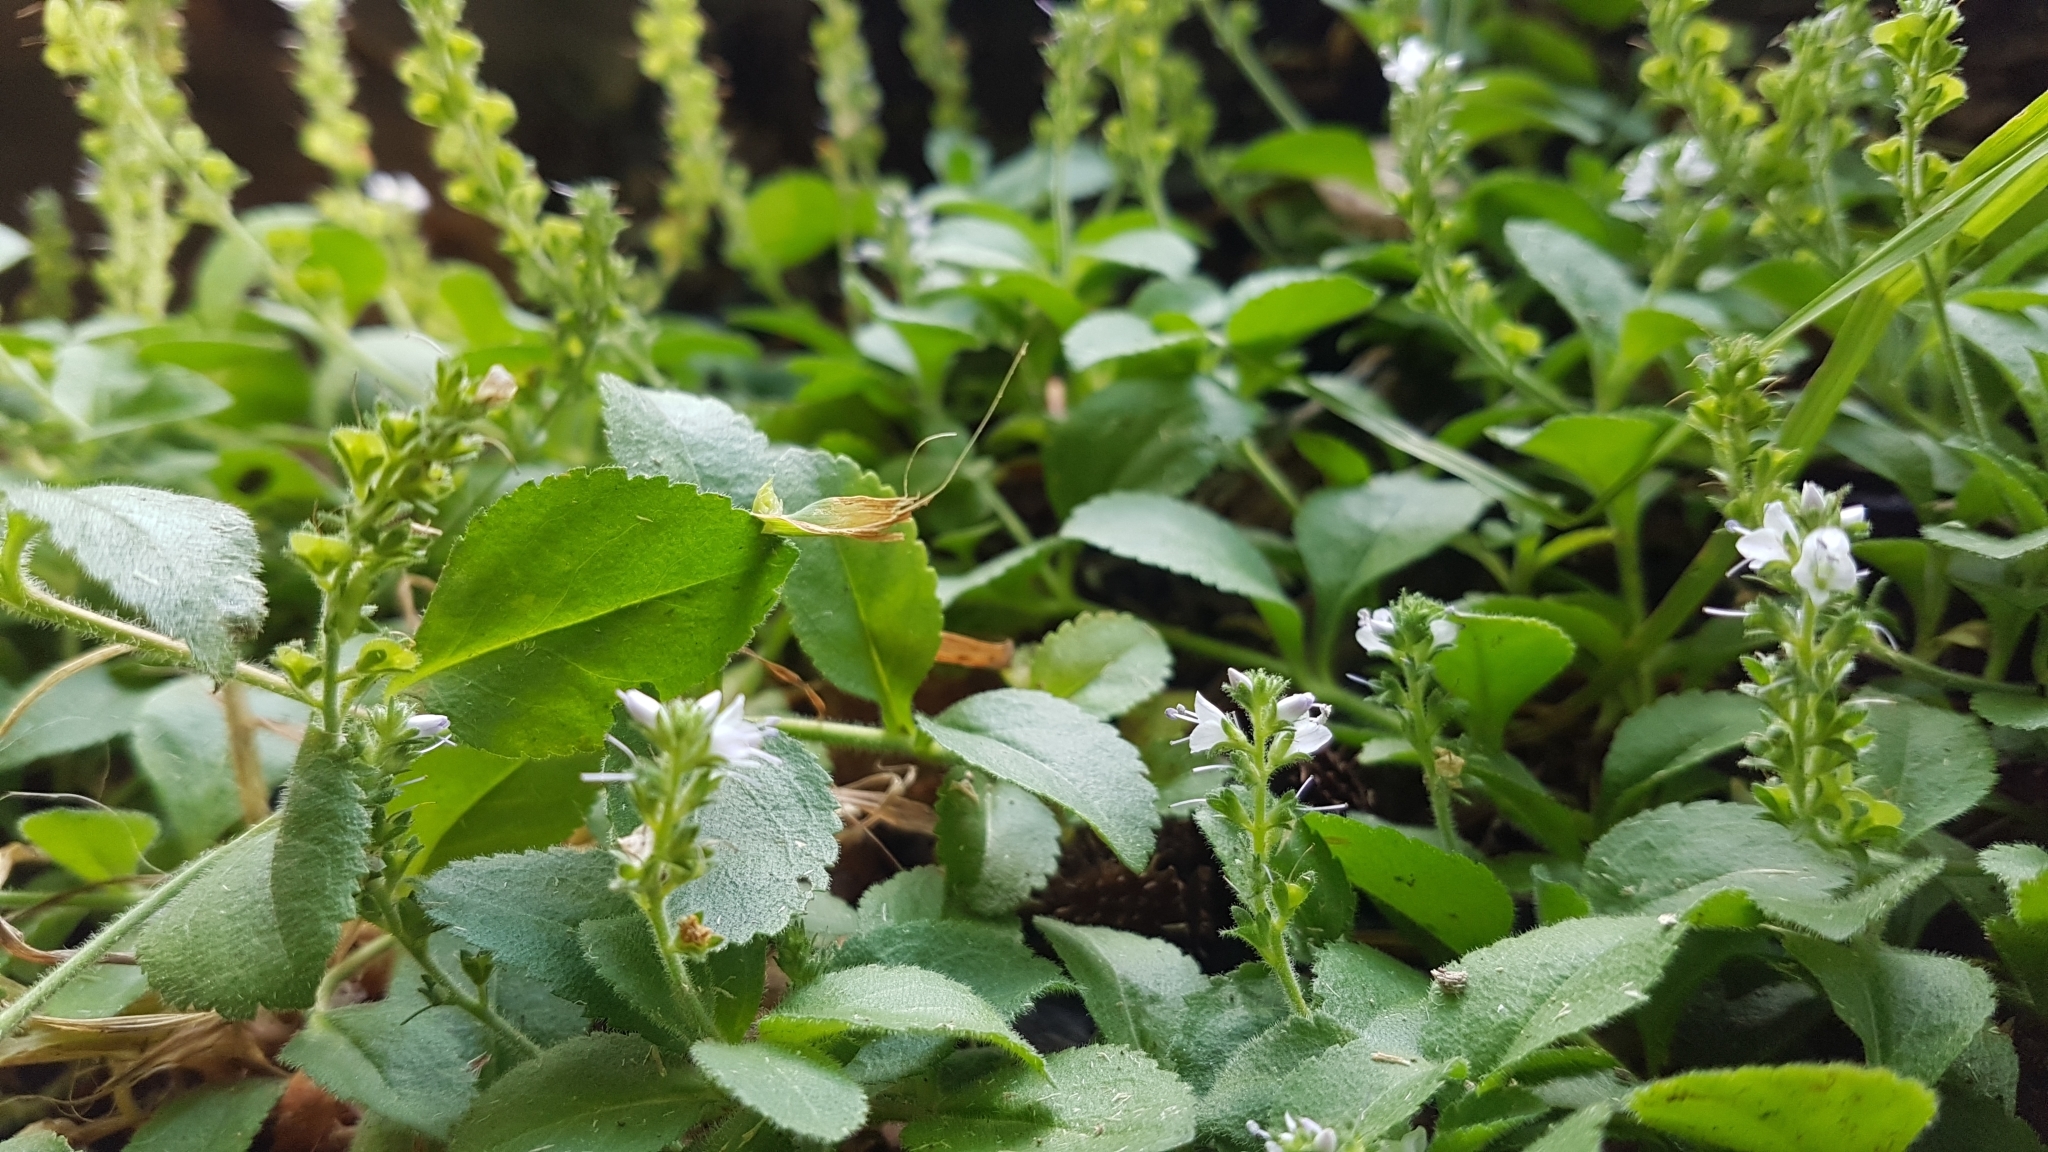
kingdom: Plantae
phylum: Tracheophyta
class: Magnoliopsida
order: Lamiales
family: Plantaginaceae
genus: Veronica
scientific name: Veronica officinalis
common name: Common speedwell
